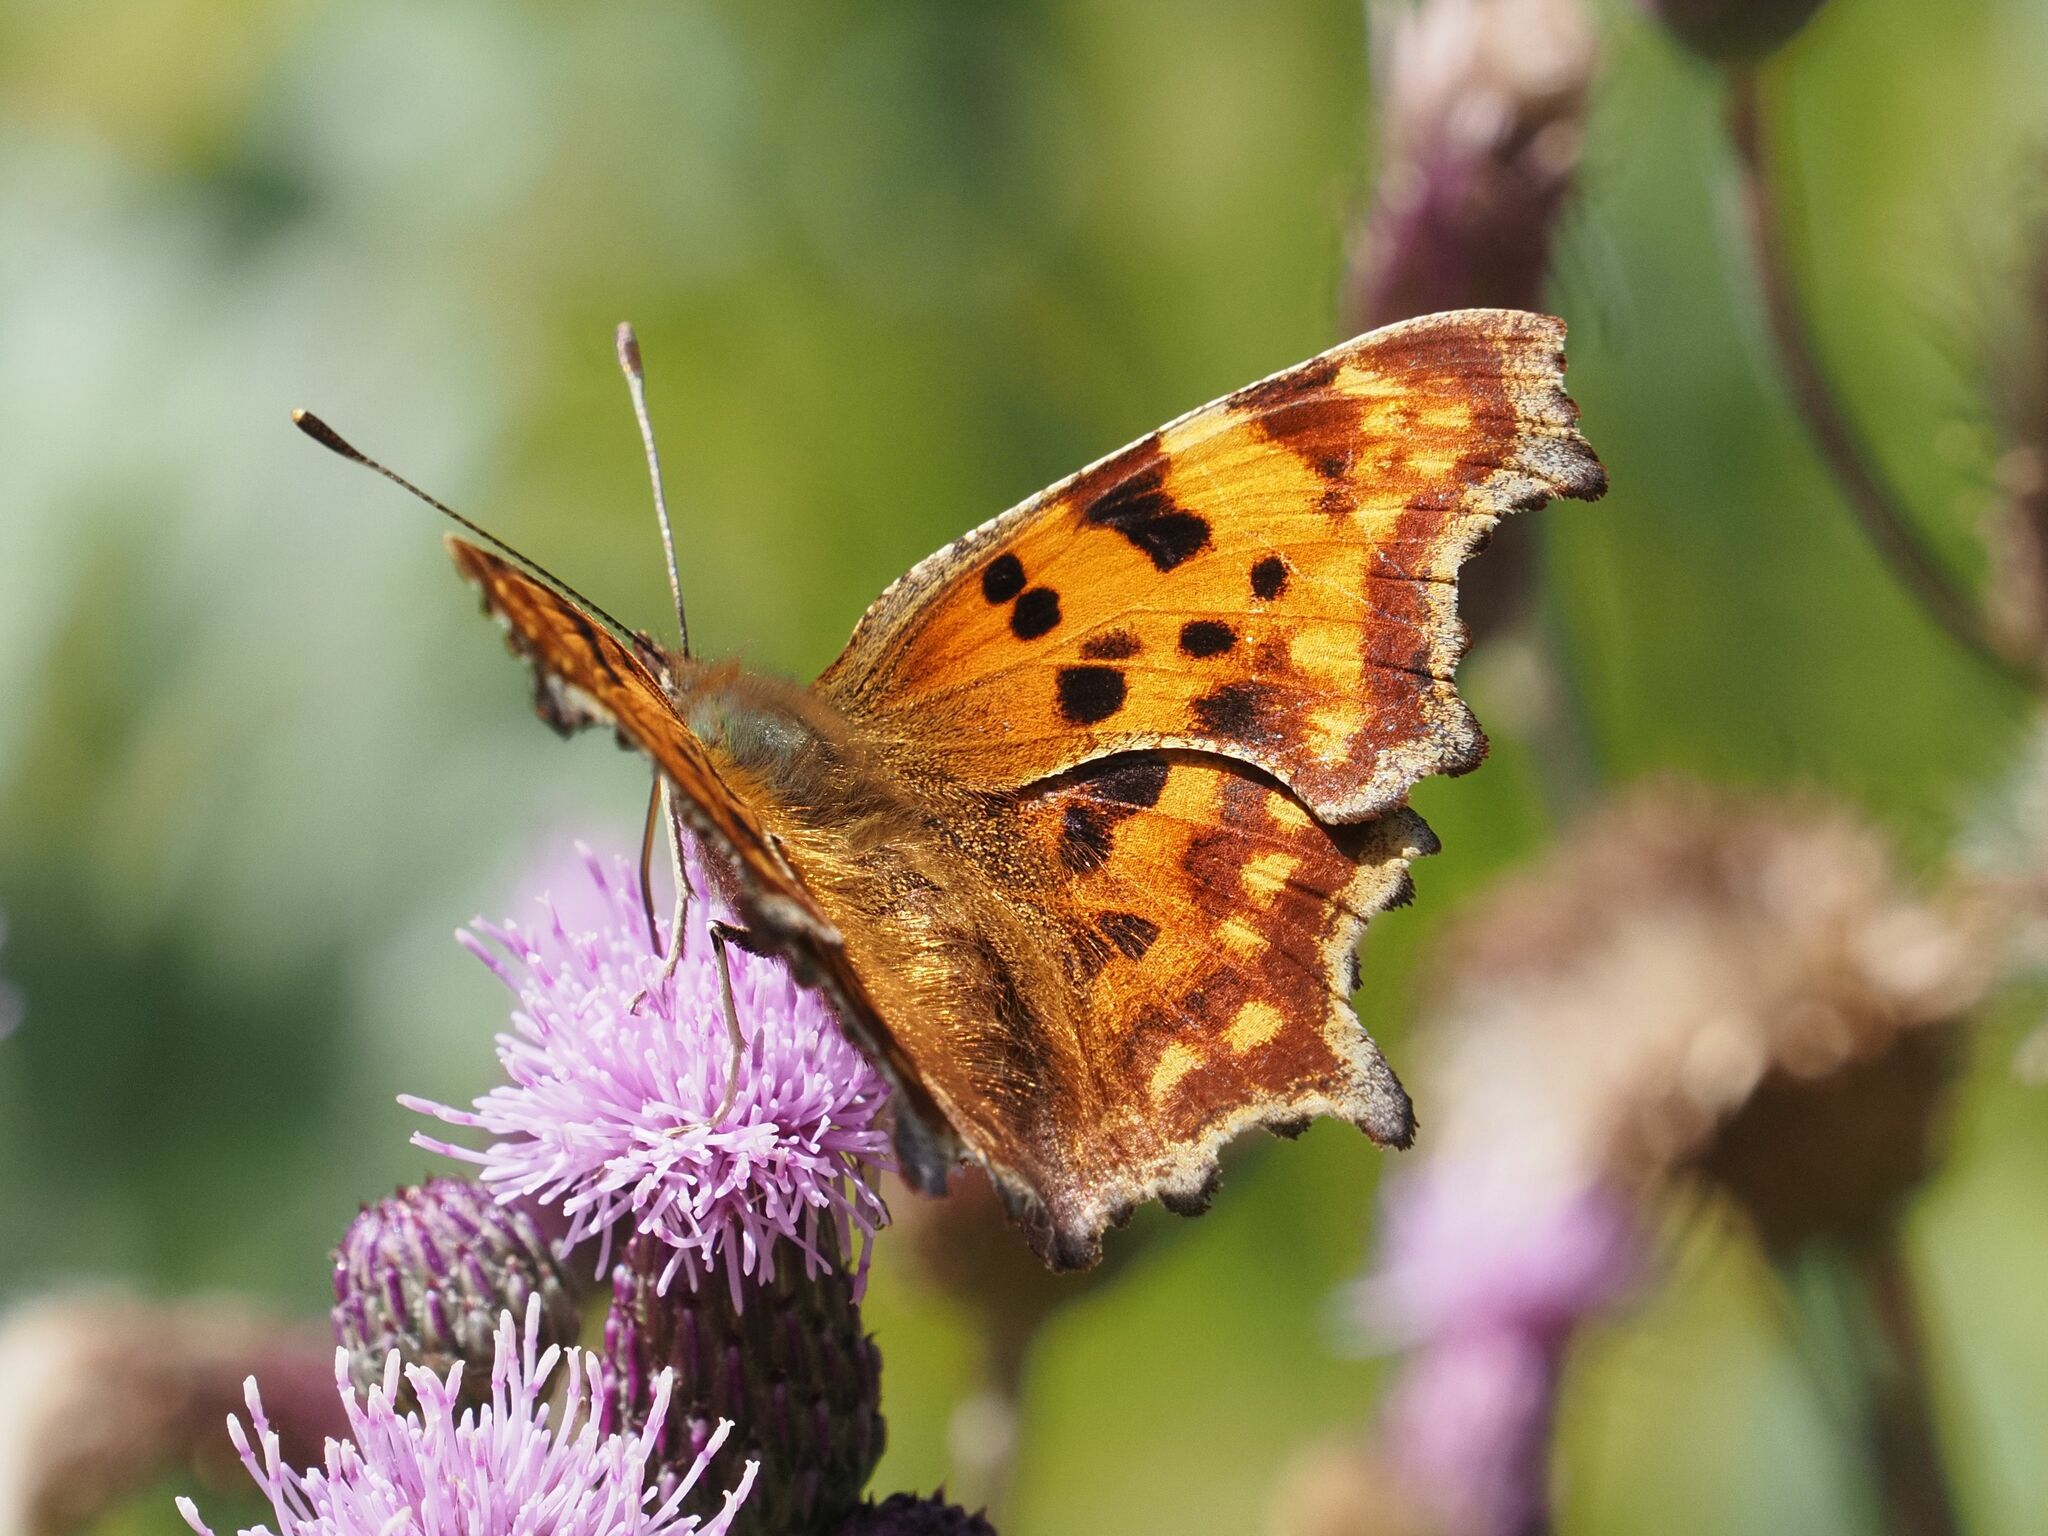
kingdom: Animalia
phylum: Arthropoda
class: Insecta
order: Lepidoptera
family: Nymphalidae
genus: Polygonia
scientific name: Polygonia c-album
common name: Comma
